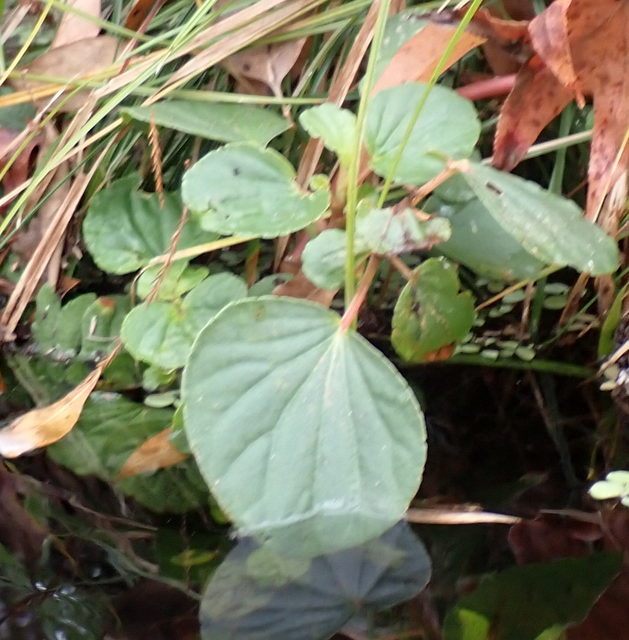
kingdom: Plantae
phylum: Tracheophyta
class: Magnoliopsida
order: Cucurbitales
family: Begoniaceae
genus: Begonia
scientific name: Begonia cucullata
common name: Clubbed begonia
